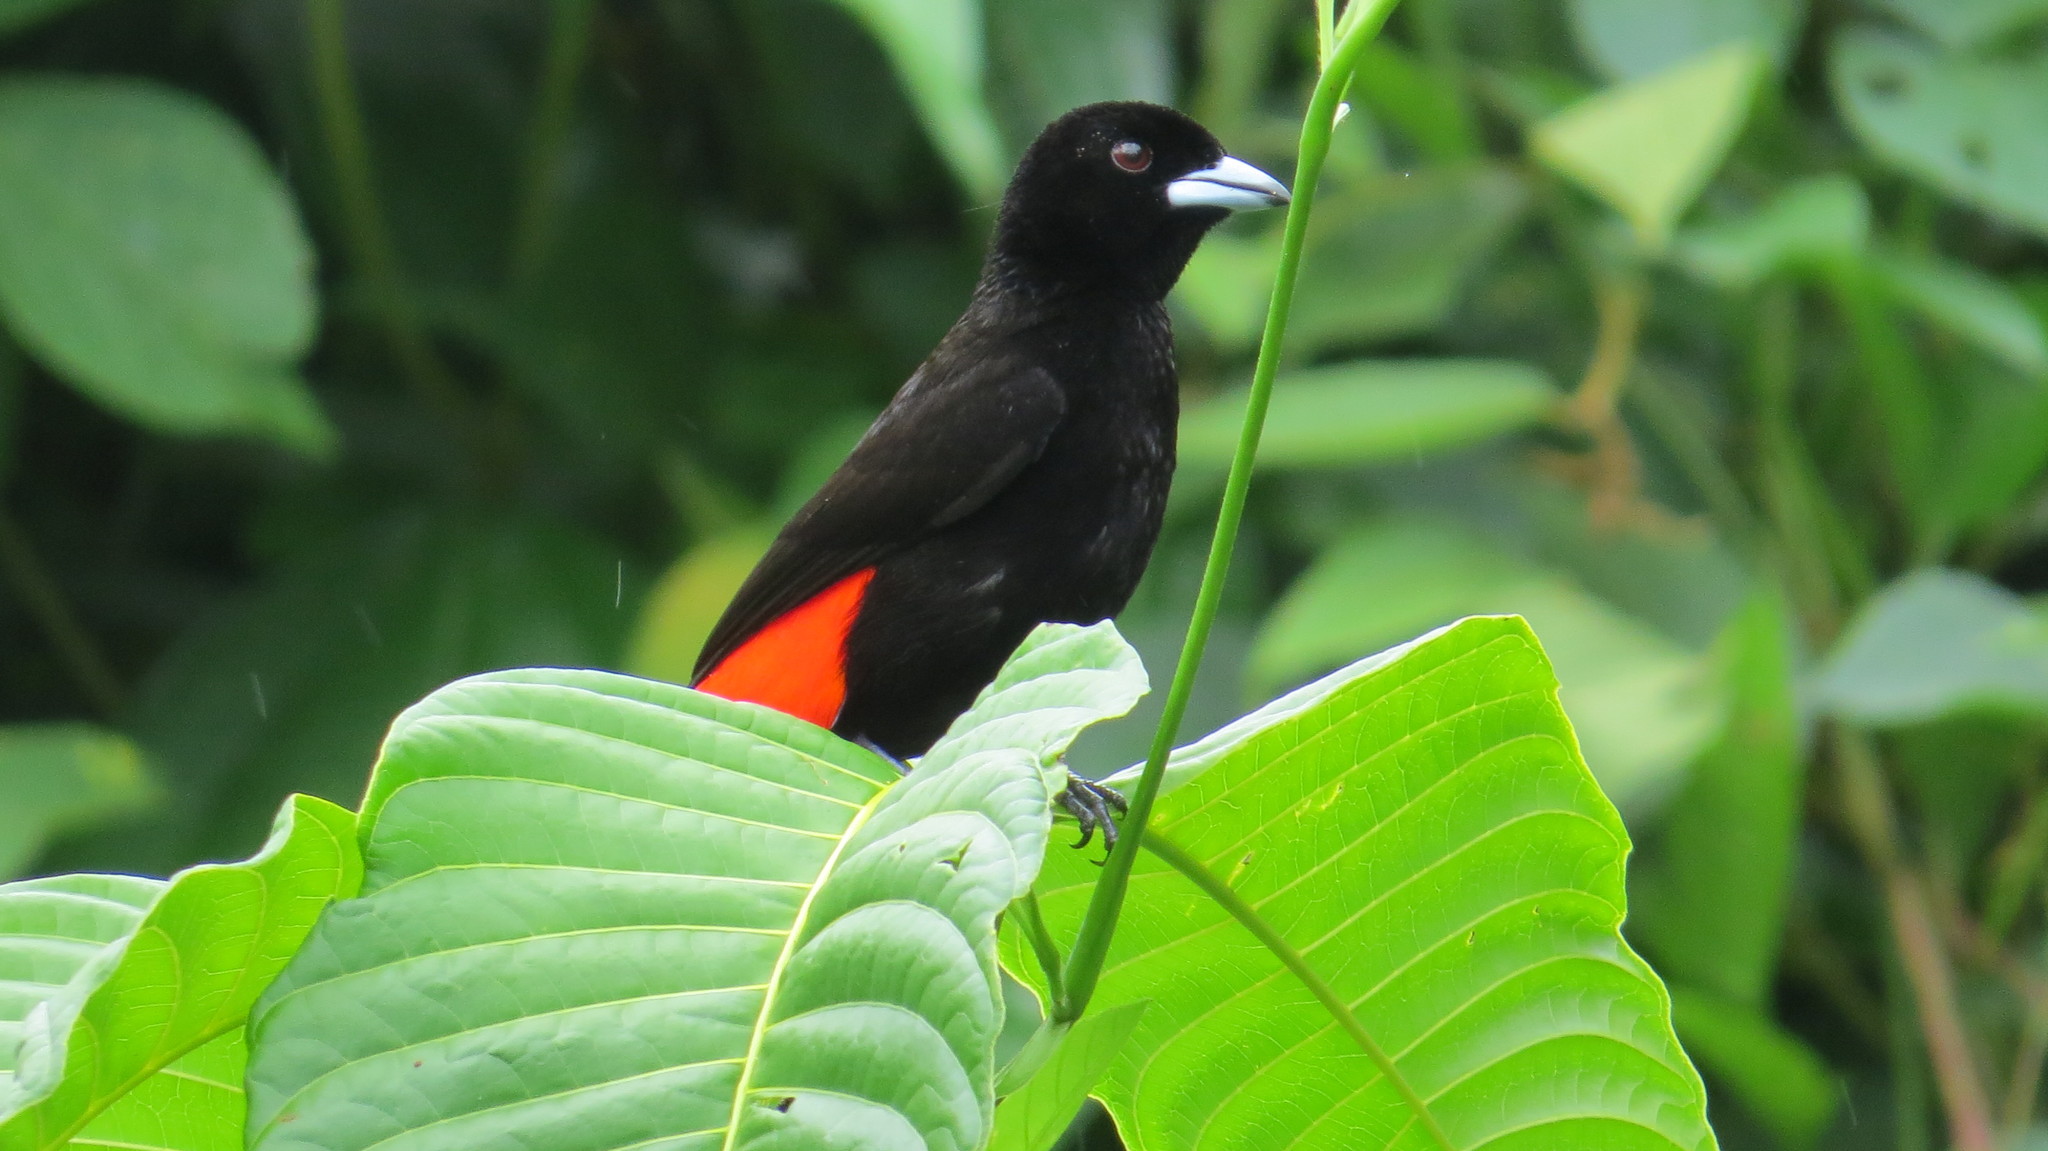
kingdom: Animalia
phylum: Chordata
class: Aves
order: Passeriformes
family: Thraupidae
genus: Ramphocelus
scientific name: Ramphocelus passerinii
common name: Passerini's tanager
